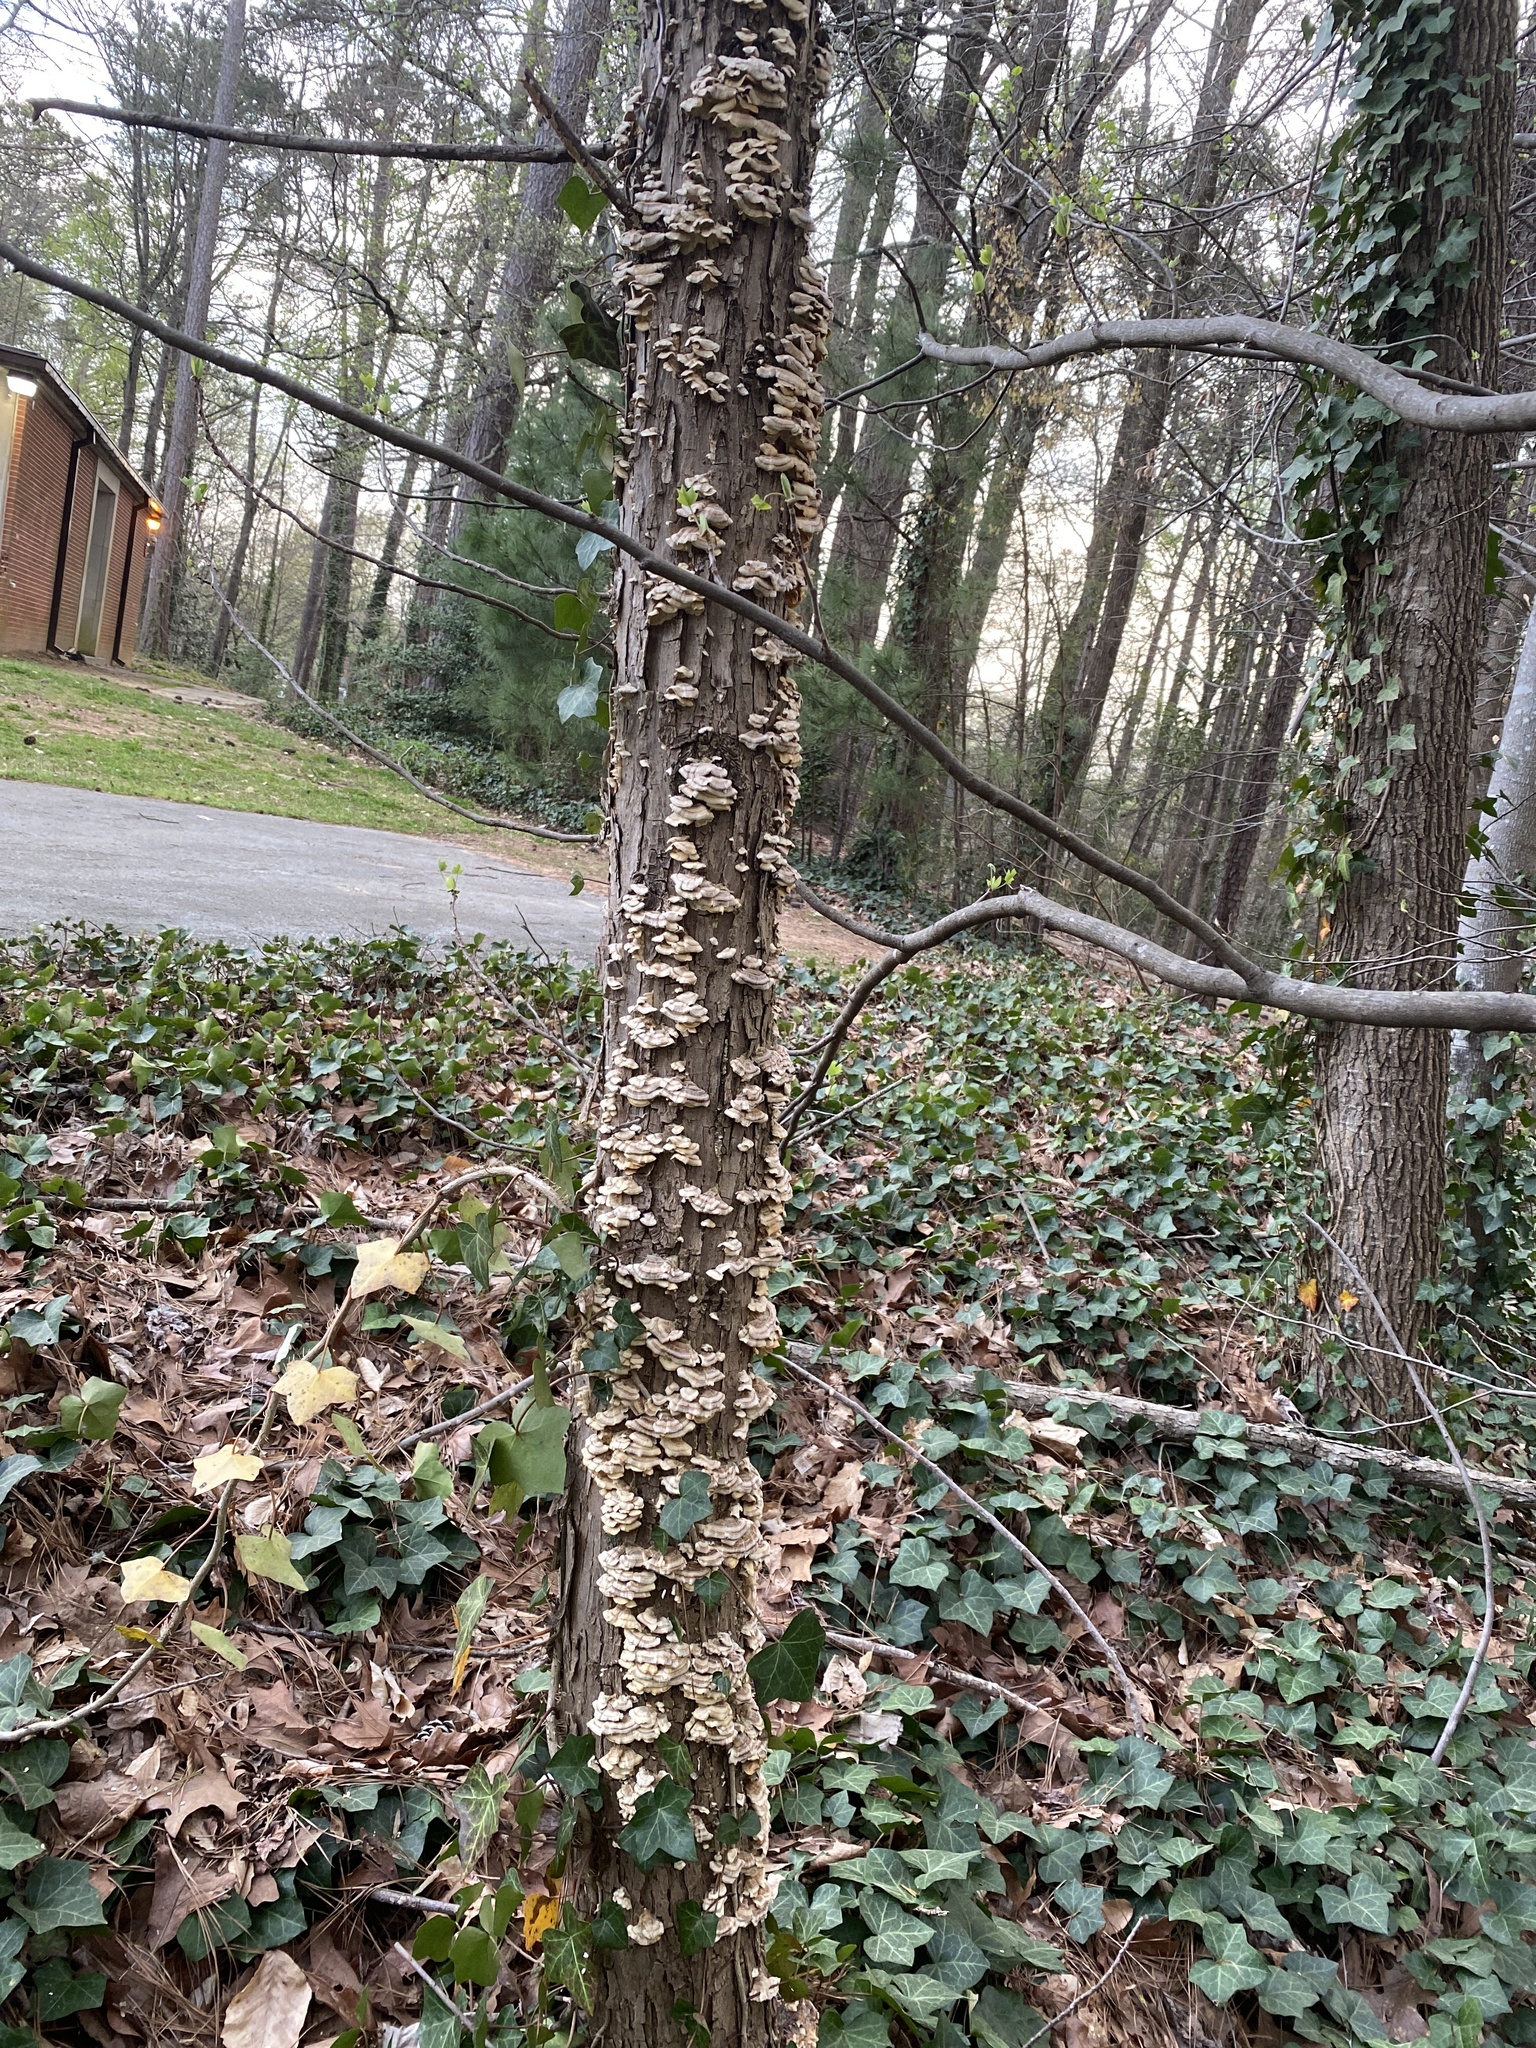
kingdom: Fungi
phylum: Basidiomycota
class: Agaricomycetes
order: Polyporales
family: Polyporaceae
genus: Trametes
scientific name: Trametes hirsuta
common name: Hairy bracket
